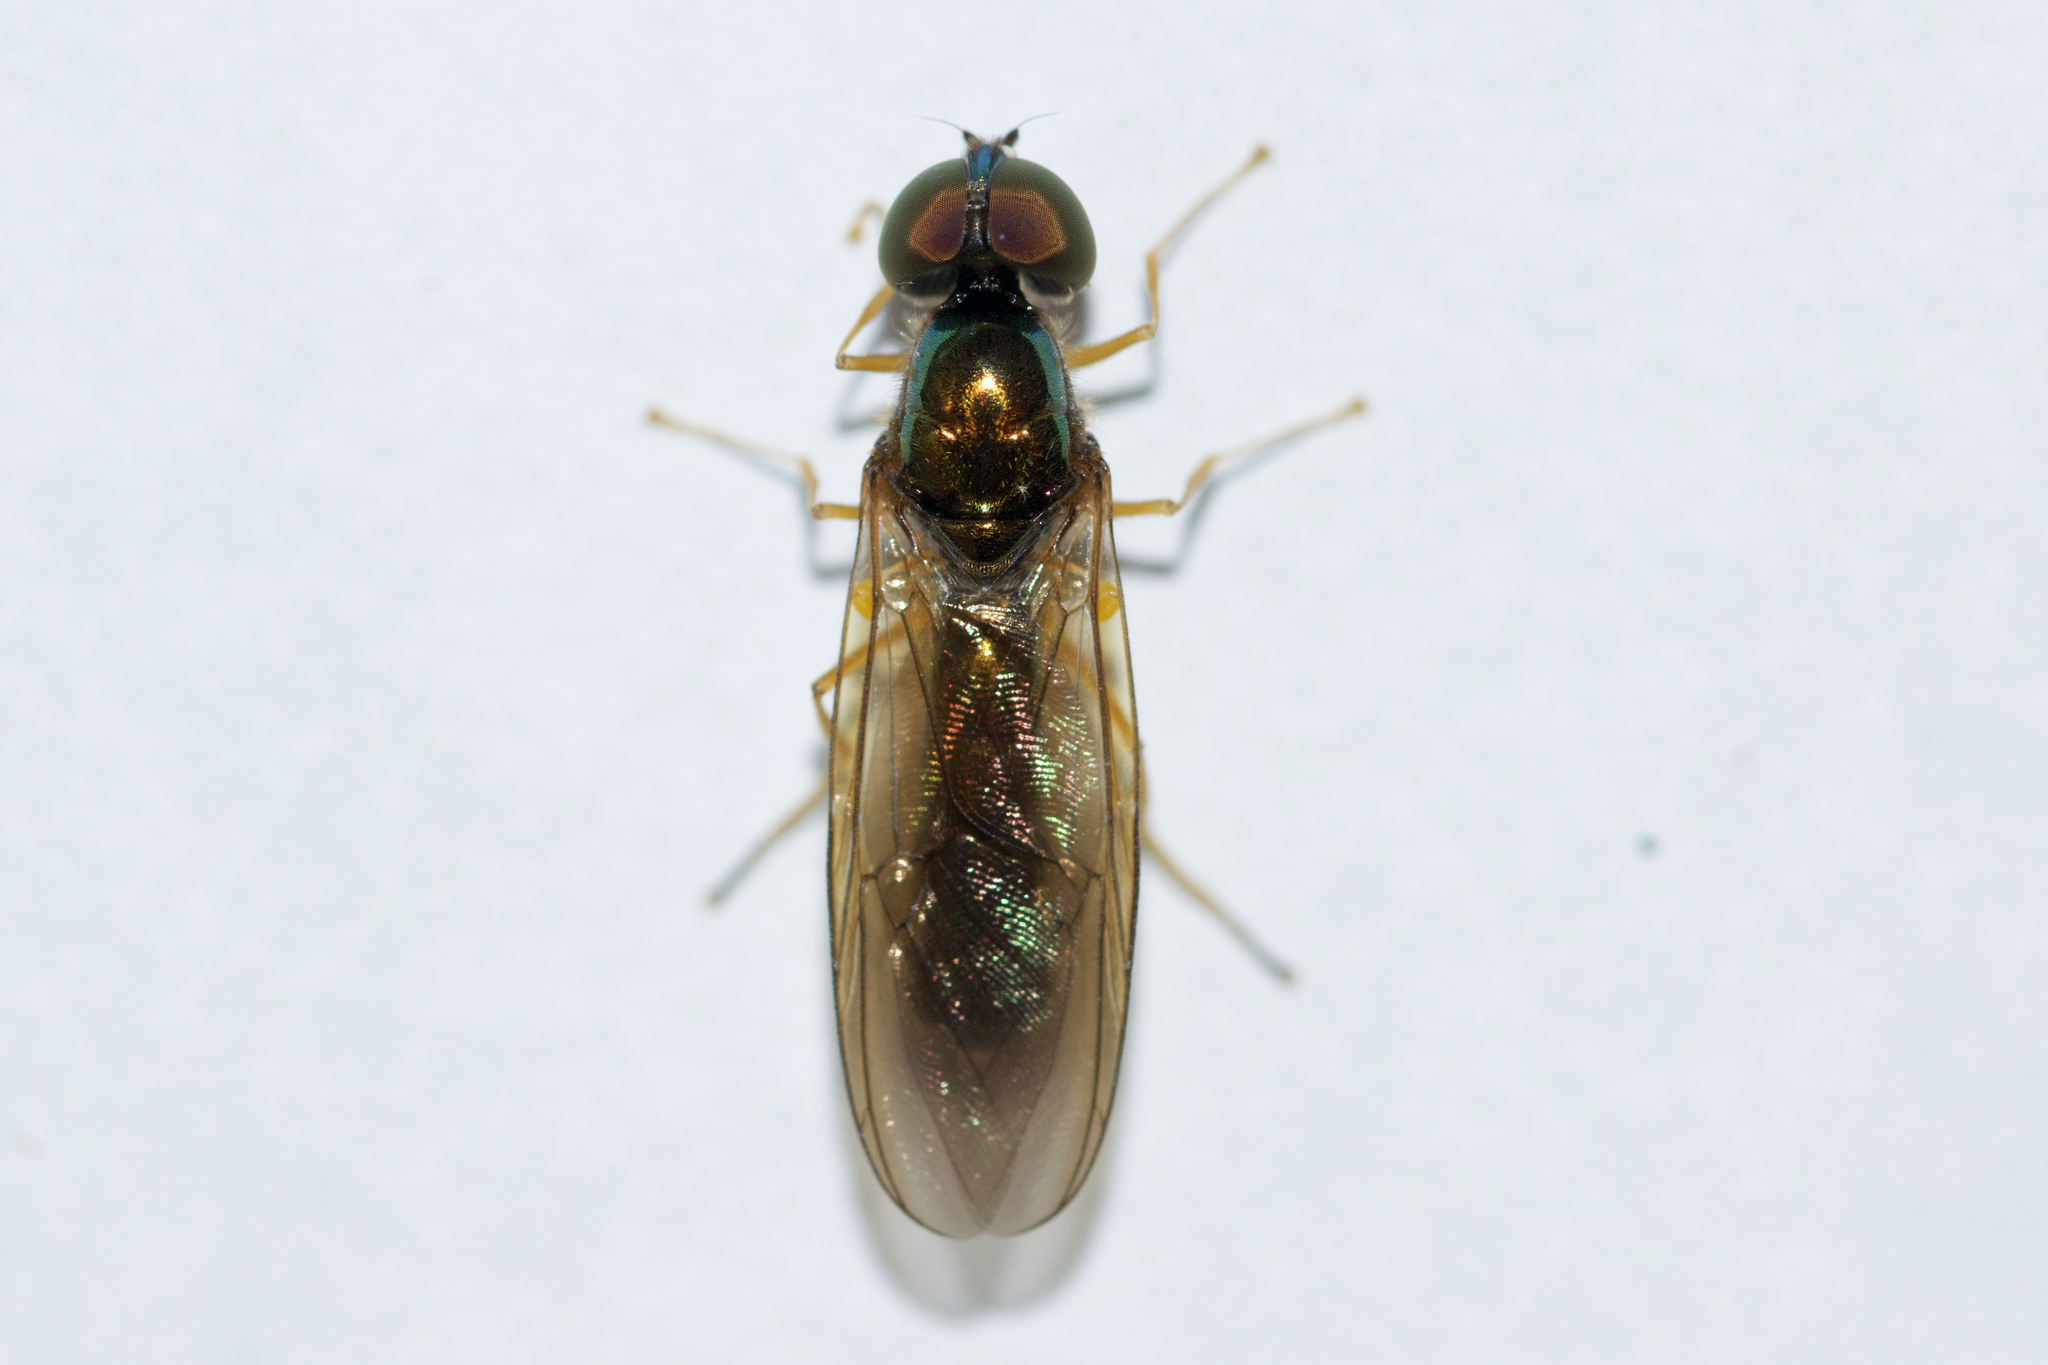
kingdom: Animalia
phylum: Arthropoda
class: Insecta
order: Diptera
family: Stratiomyidae
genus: Sargus
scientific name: Sargus decorus
